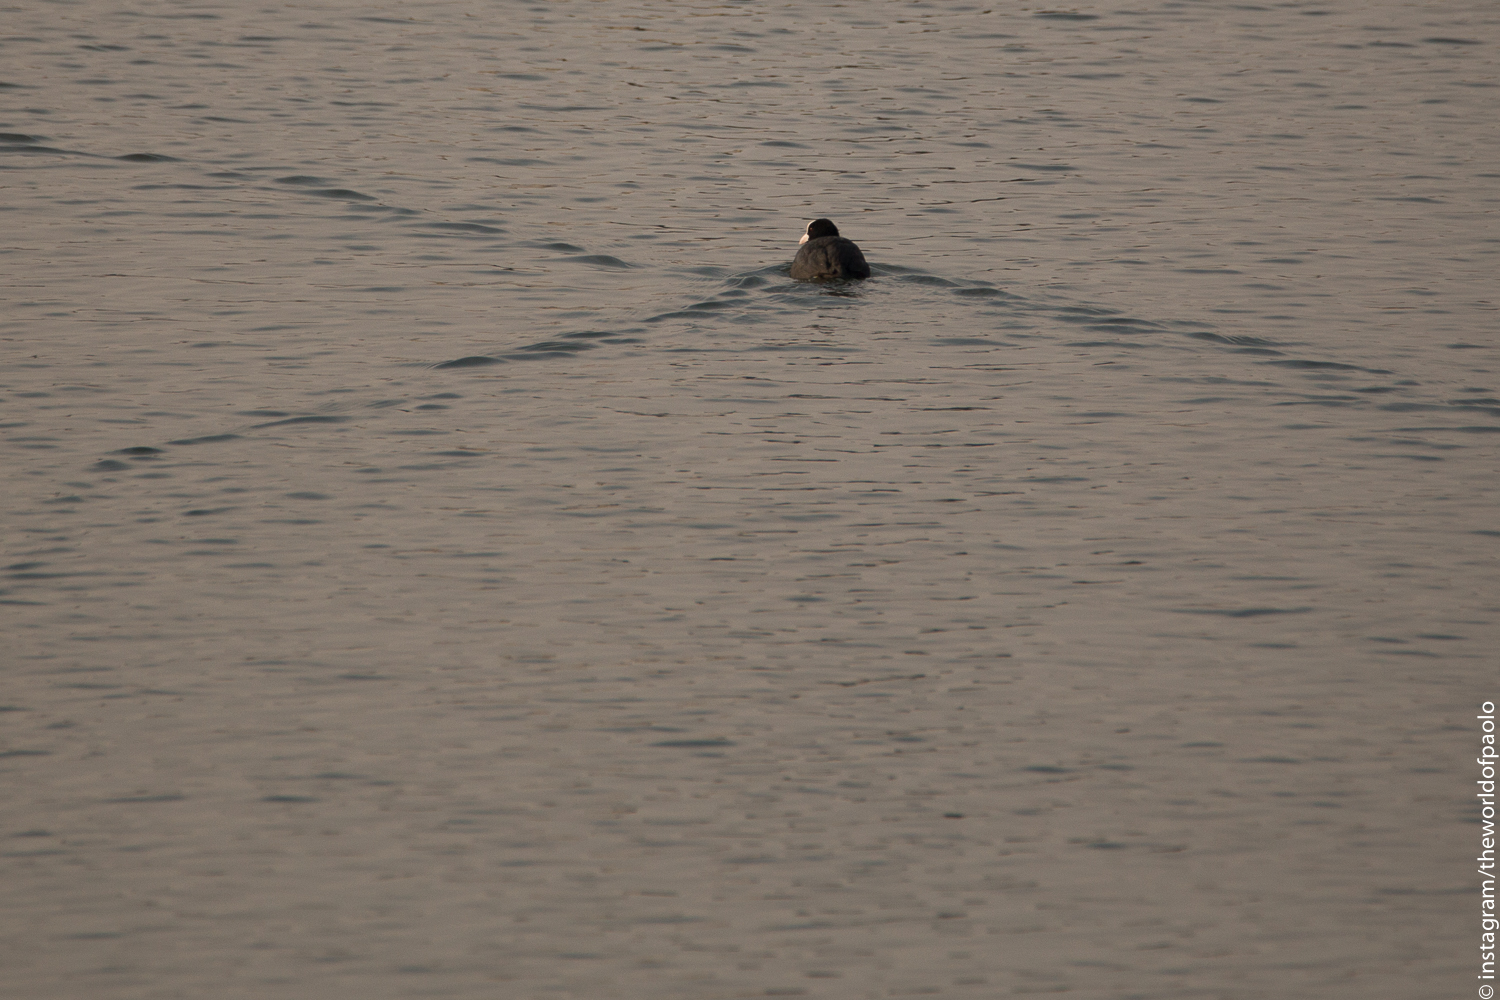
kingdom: Animalia
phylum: Chordata
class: Aves
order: Gruiformes
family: Rallidae
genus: Fulica
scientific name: Fulica atra
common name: Eurasian coot
